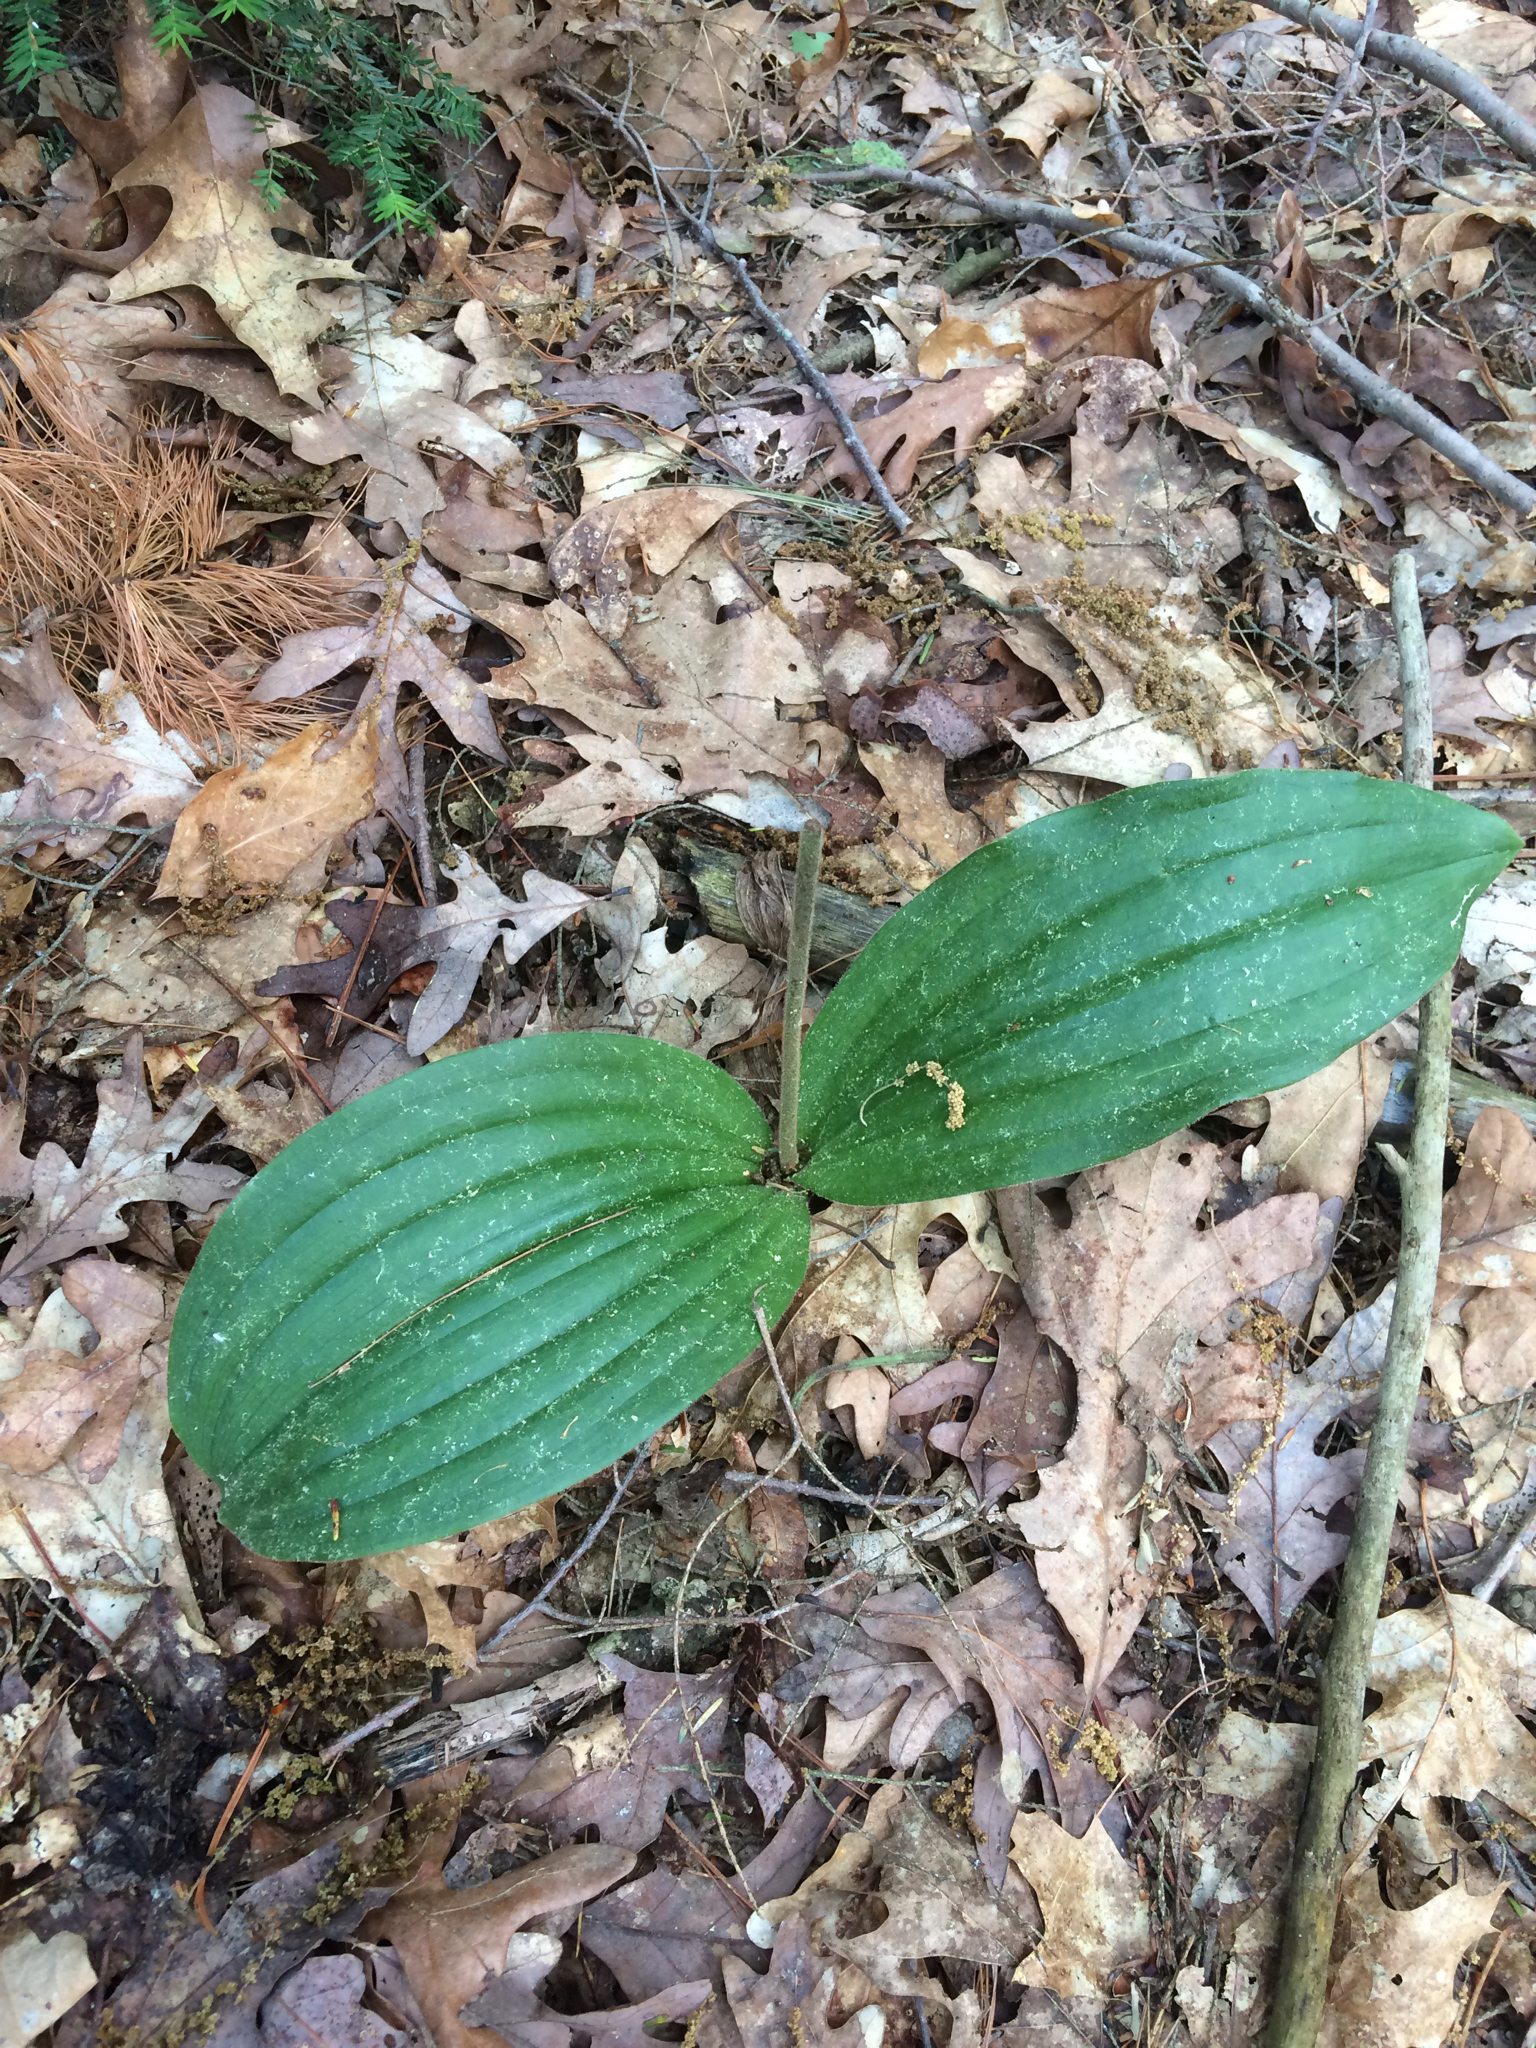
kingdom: Plantae
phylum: Tracheophyta
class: Liliopsida
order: Asparagales
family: Orchidaceae
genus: Cypripedium
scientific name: Cypripedium acaule
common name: Pink lady's-slipper
